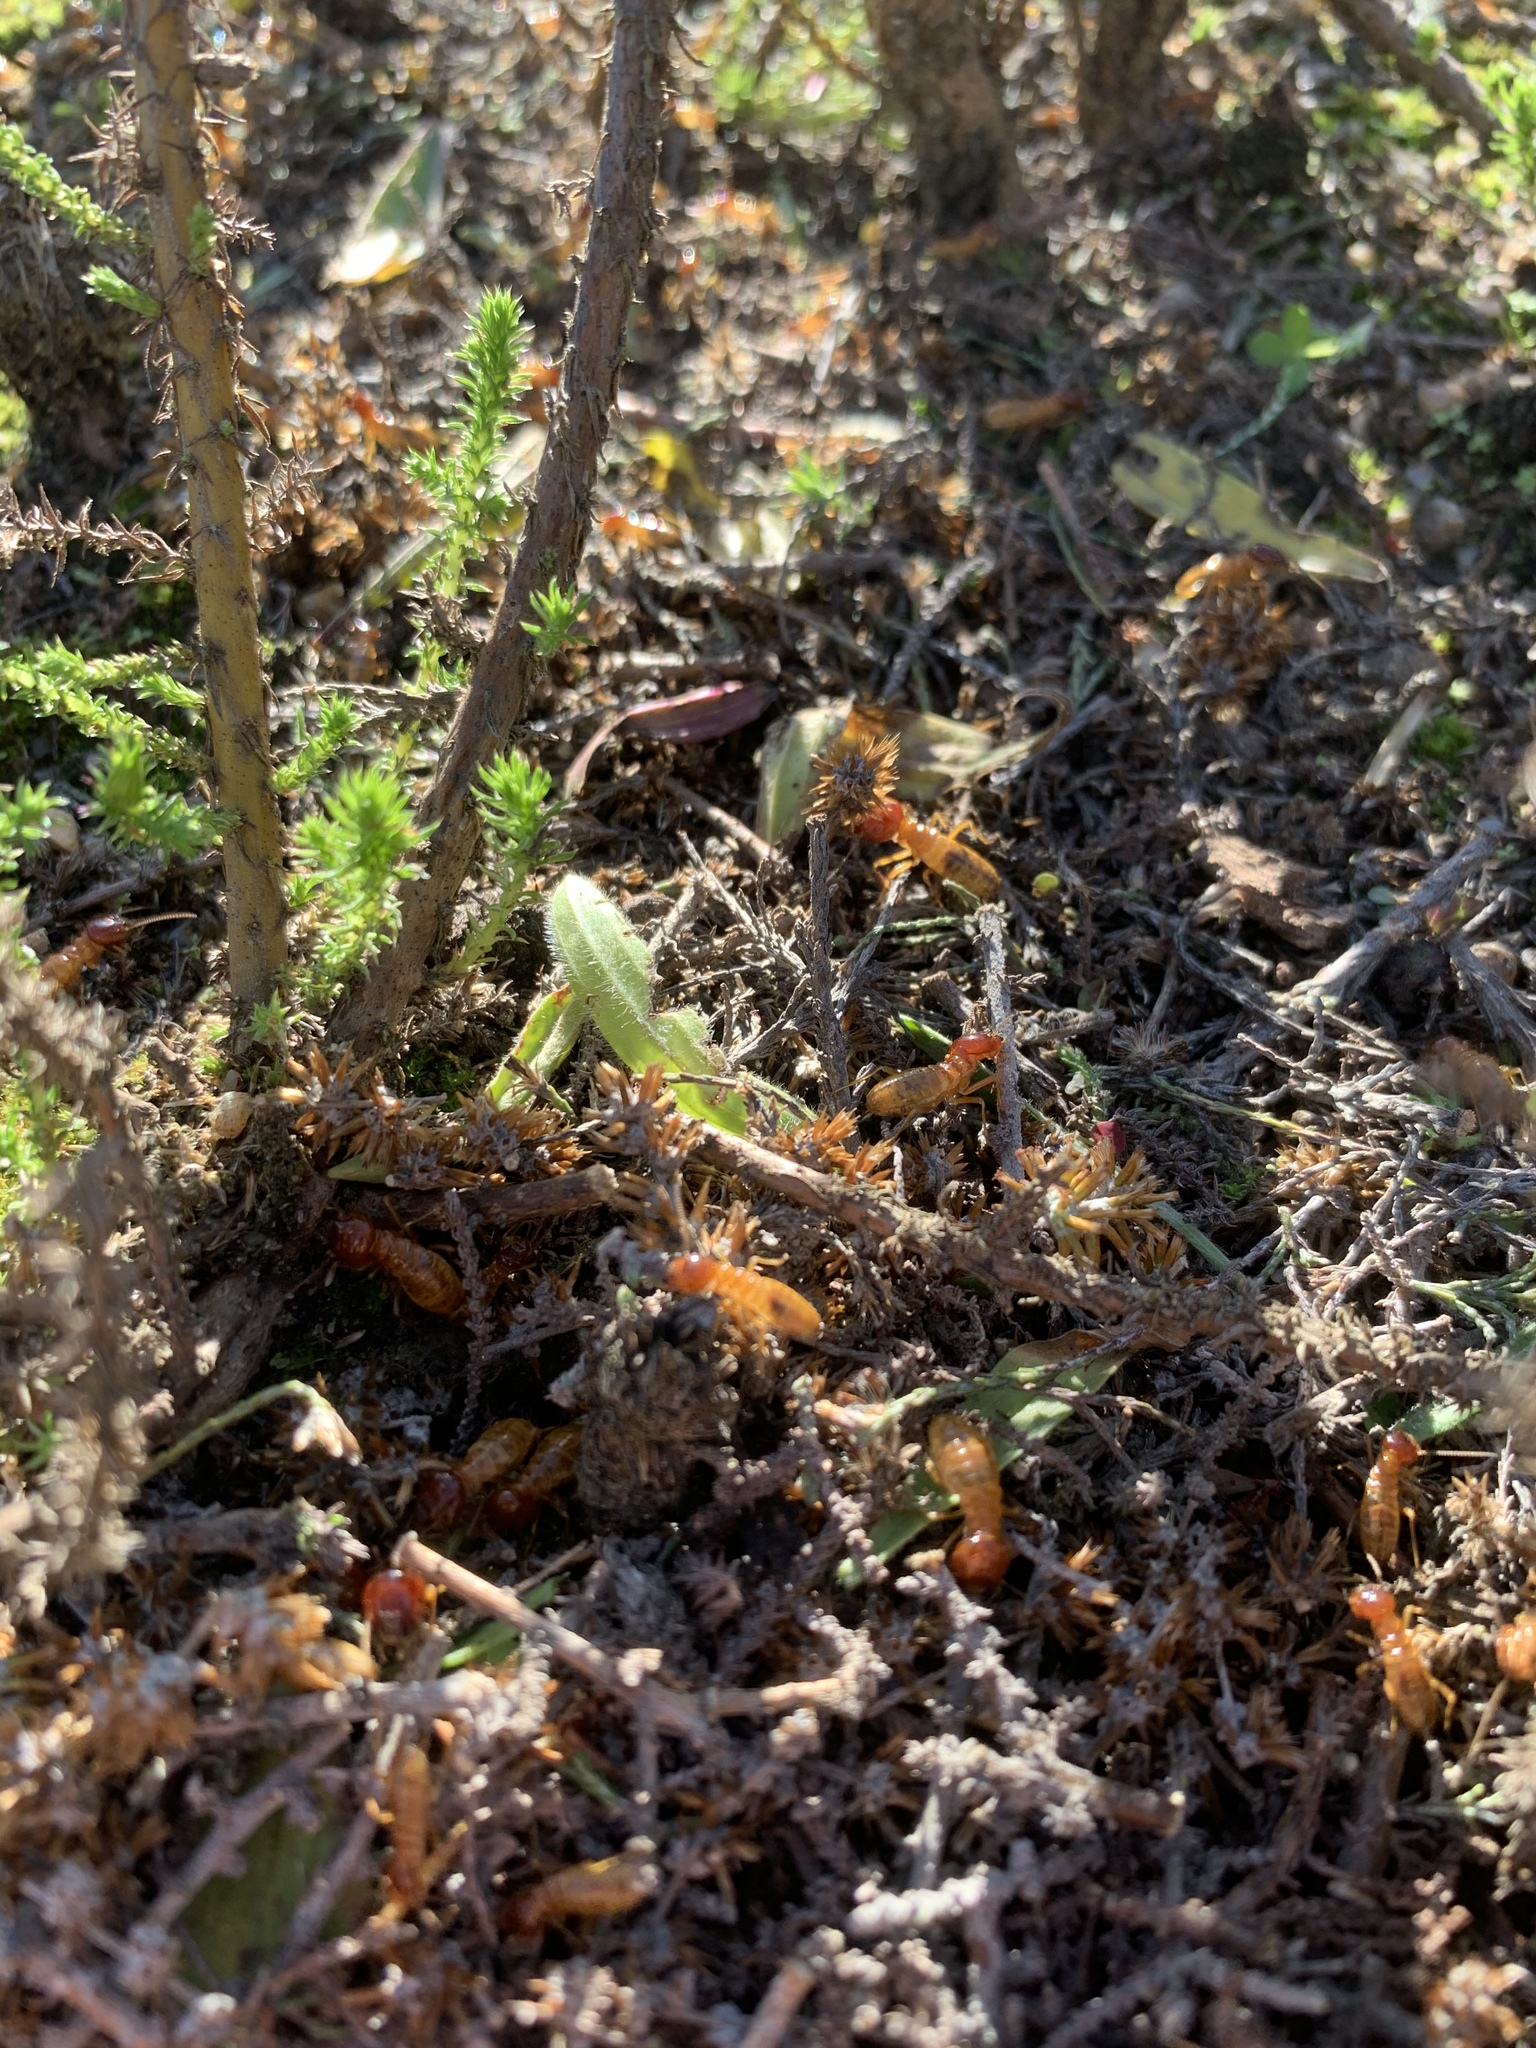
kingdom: Animalia
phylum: Arthropoda
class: Insecta
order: Blattodea
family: Hodotermitidae
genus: Microhodotermes
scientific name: Microhodotermes viator
